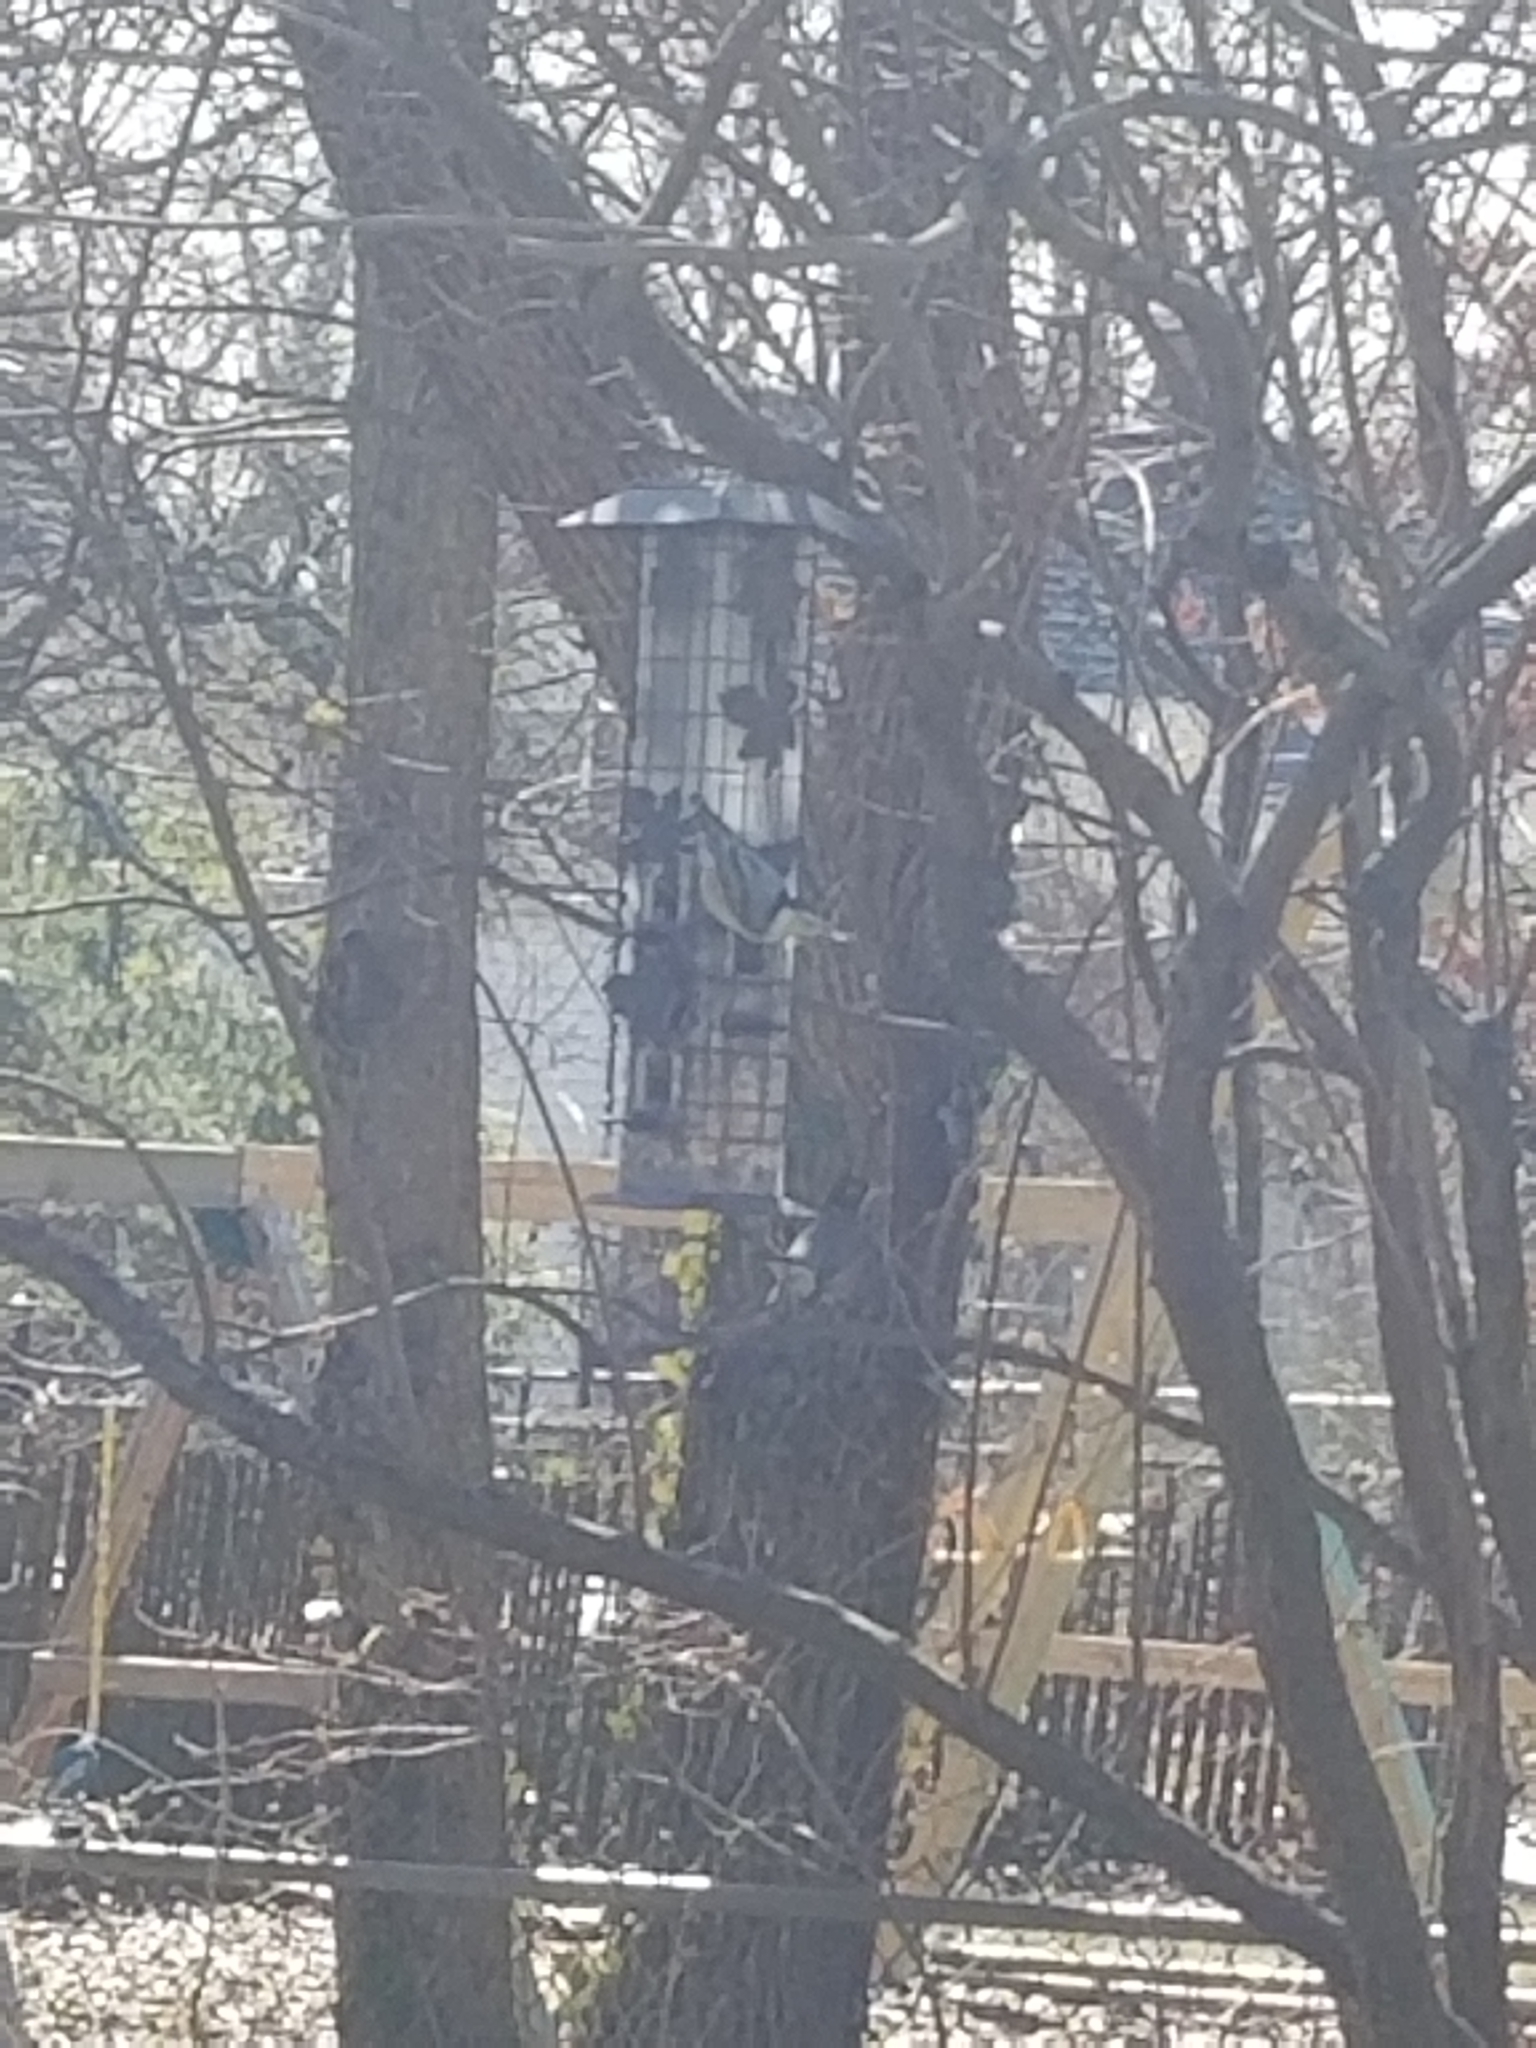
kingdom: Animalia
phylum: Chordata
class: Aves
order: Passeriformes
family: Sittidae
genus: Sitta
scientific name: Sitta carolinensis
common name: White-breasted nuthatch
